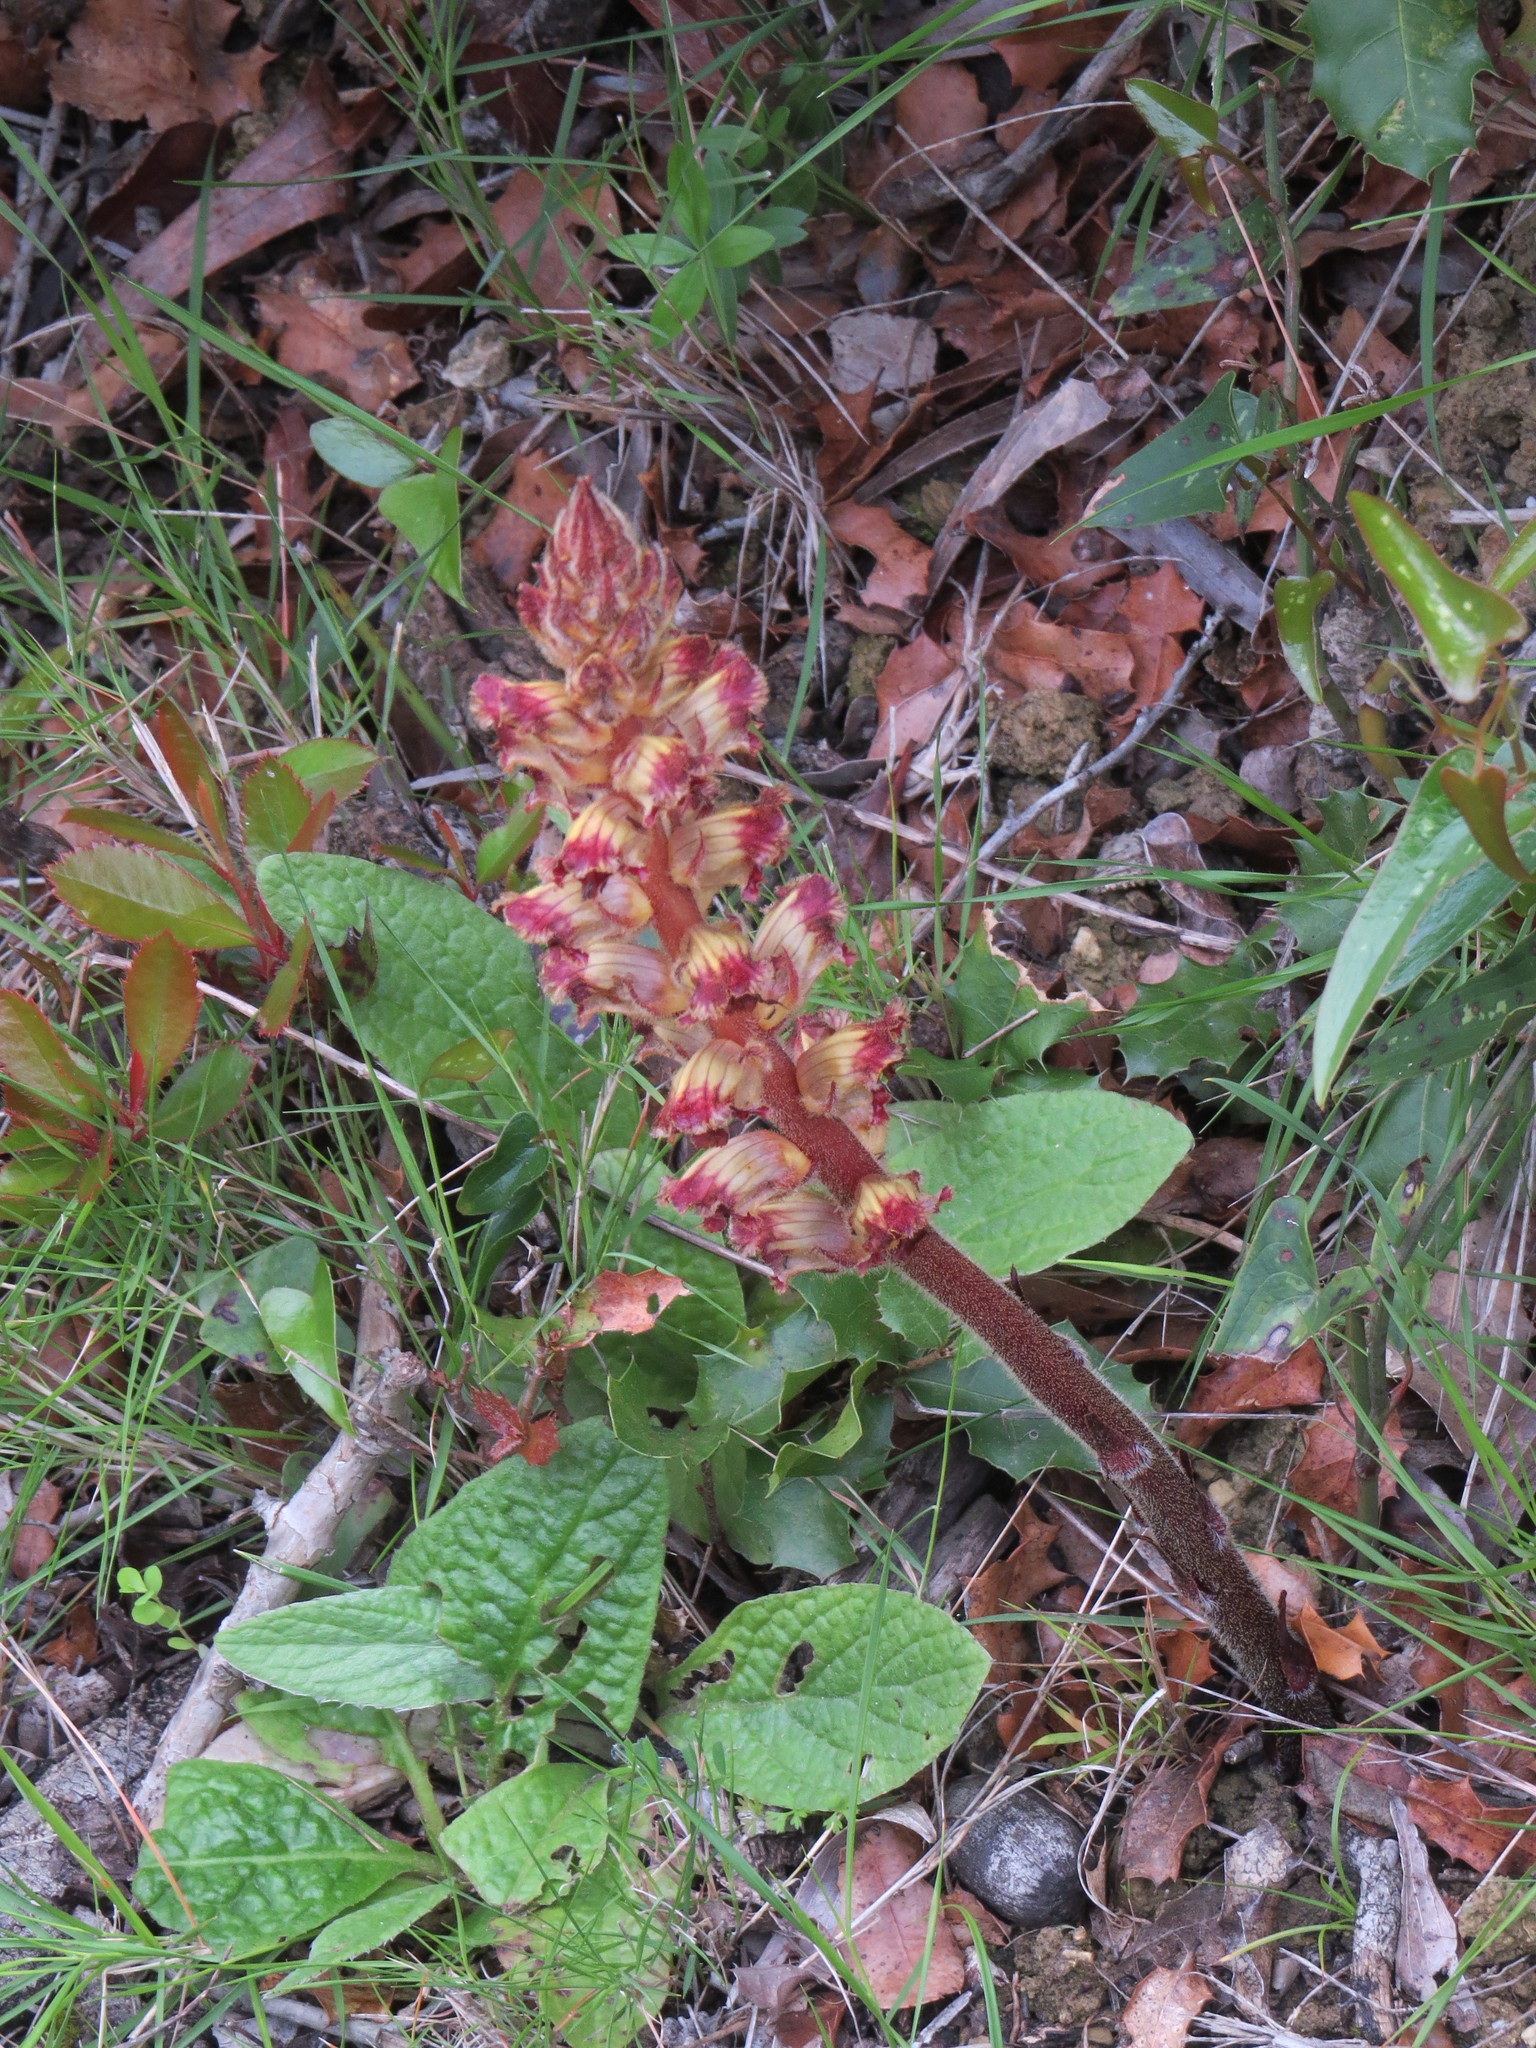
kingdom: Plantae
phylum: Tracheophyta
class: Magnoliopsida
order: Lamiales
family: Orobanchaceae
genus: Orobanche
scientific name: Orobanche gracilis
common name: Slender broomrape
